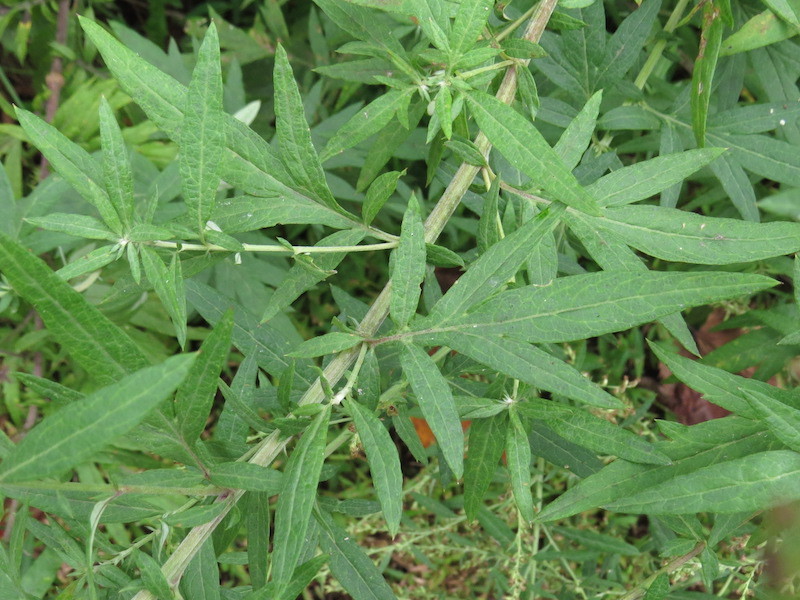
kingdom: Plantae
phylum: Tracheophyta
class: Magnoliopsida
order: Asterales
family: Asteraceae
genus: Artemisia
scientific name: Artemisia vulgaris
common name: Mugwort
